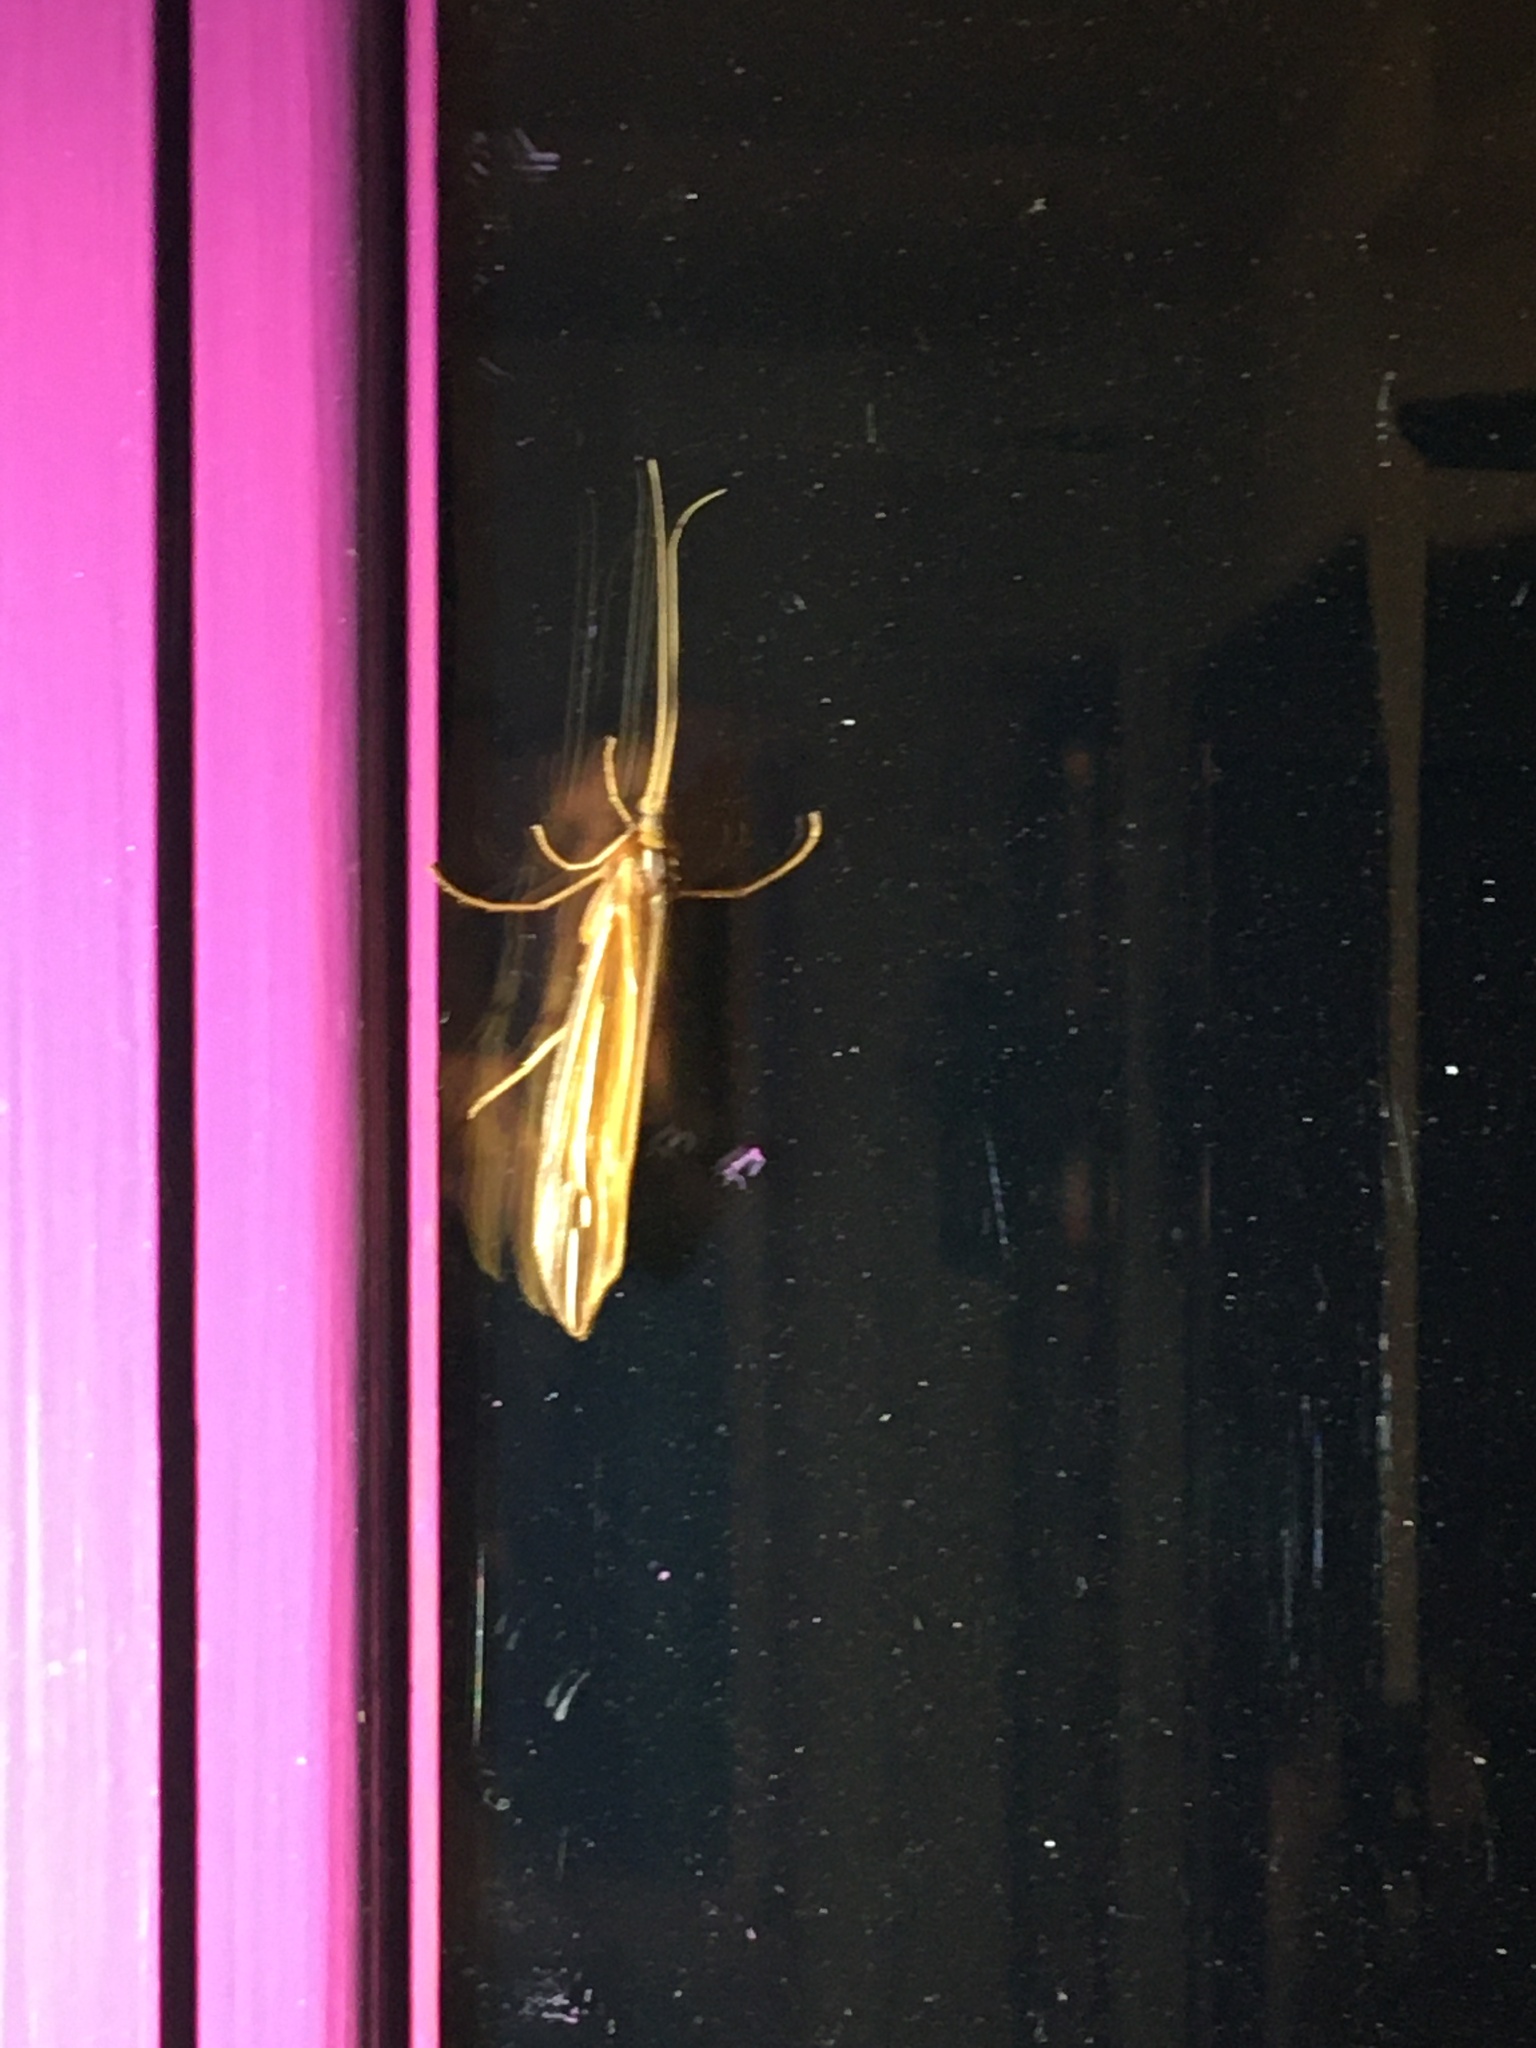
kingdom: Animalia
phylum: Arthropoda
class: Insecta
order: Trichoptera
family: Limnephilidae
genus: Psychoglypha
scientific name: Psychoglypha bella
